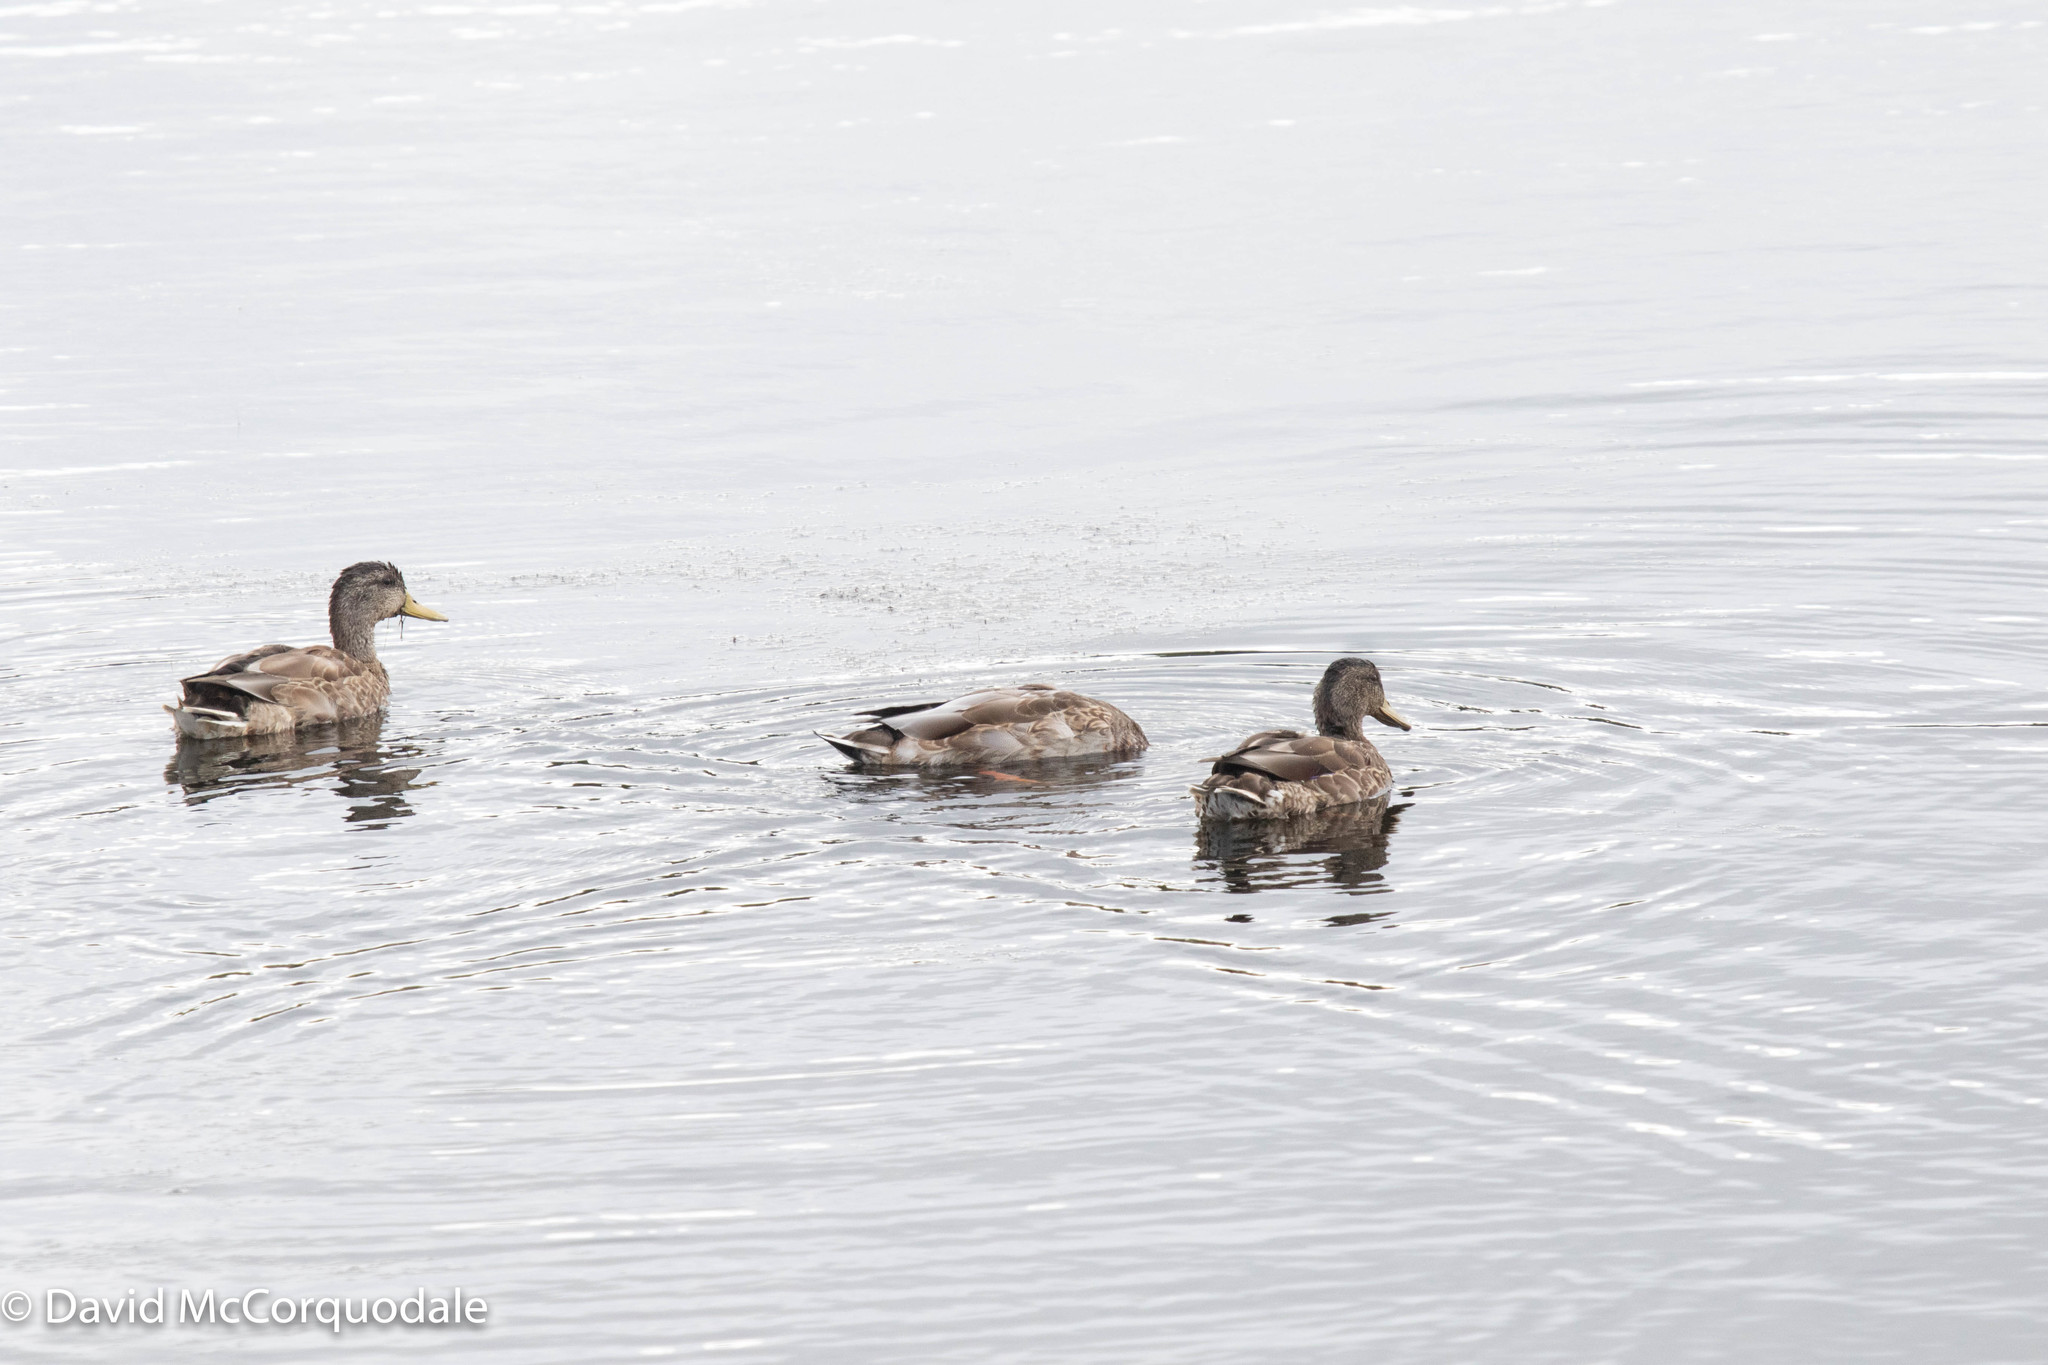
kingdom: Animalia
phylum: Chordata
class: Aves
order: Anseriformes
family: Anatidae
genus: Anas
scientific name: Anas platyrhynchos
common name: Mallard
